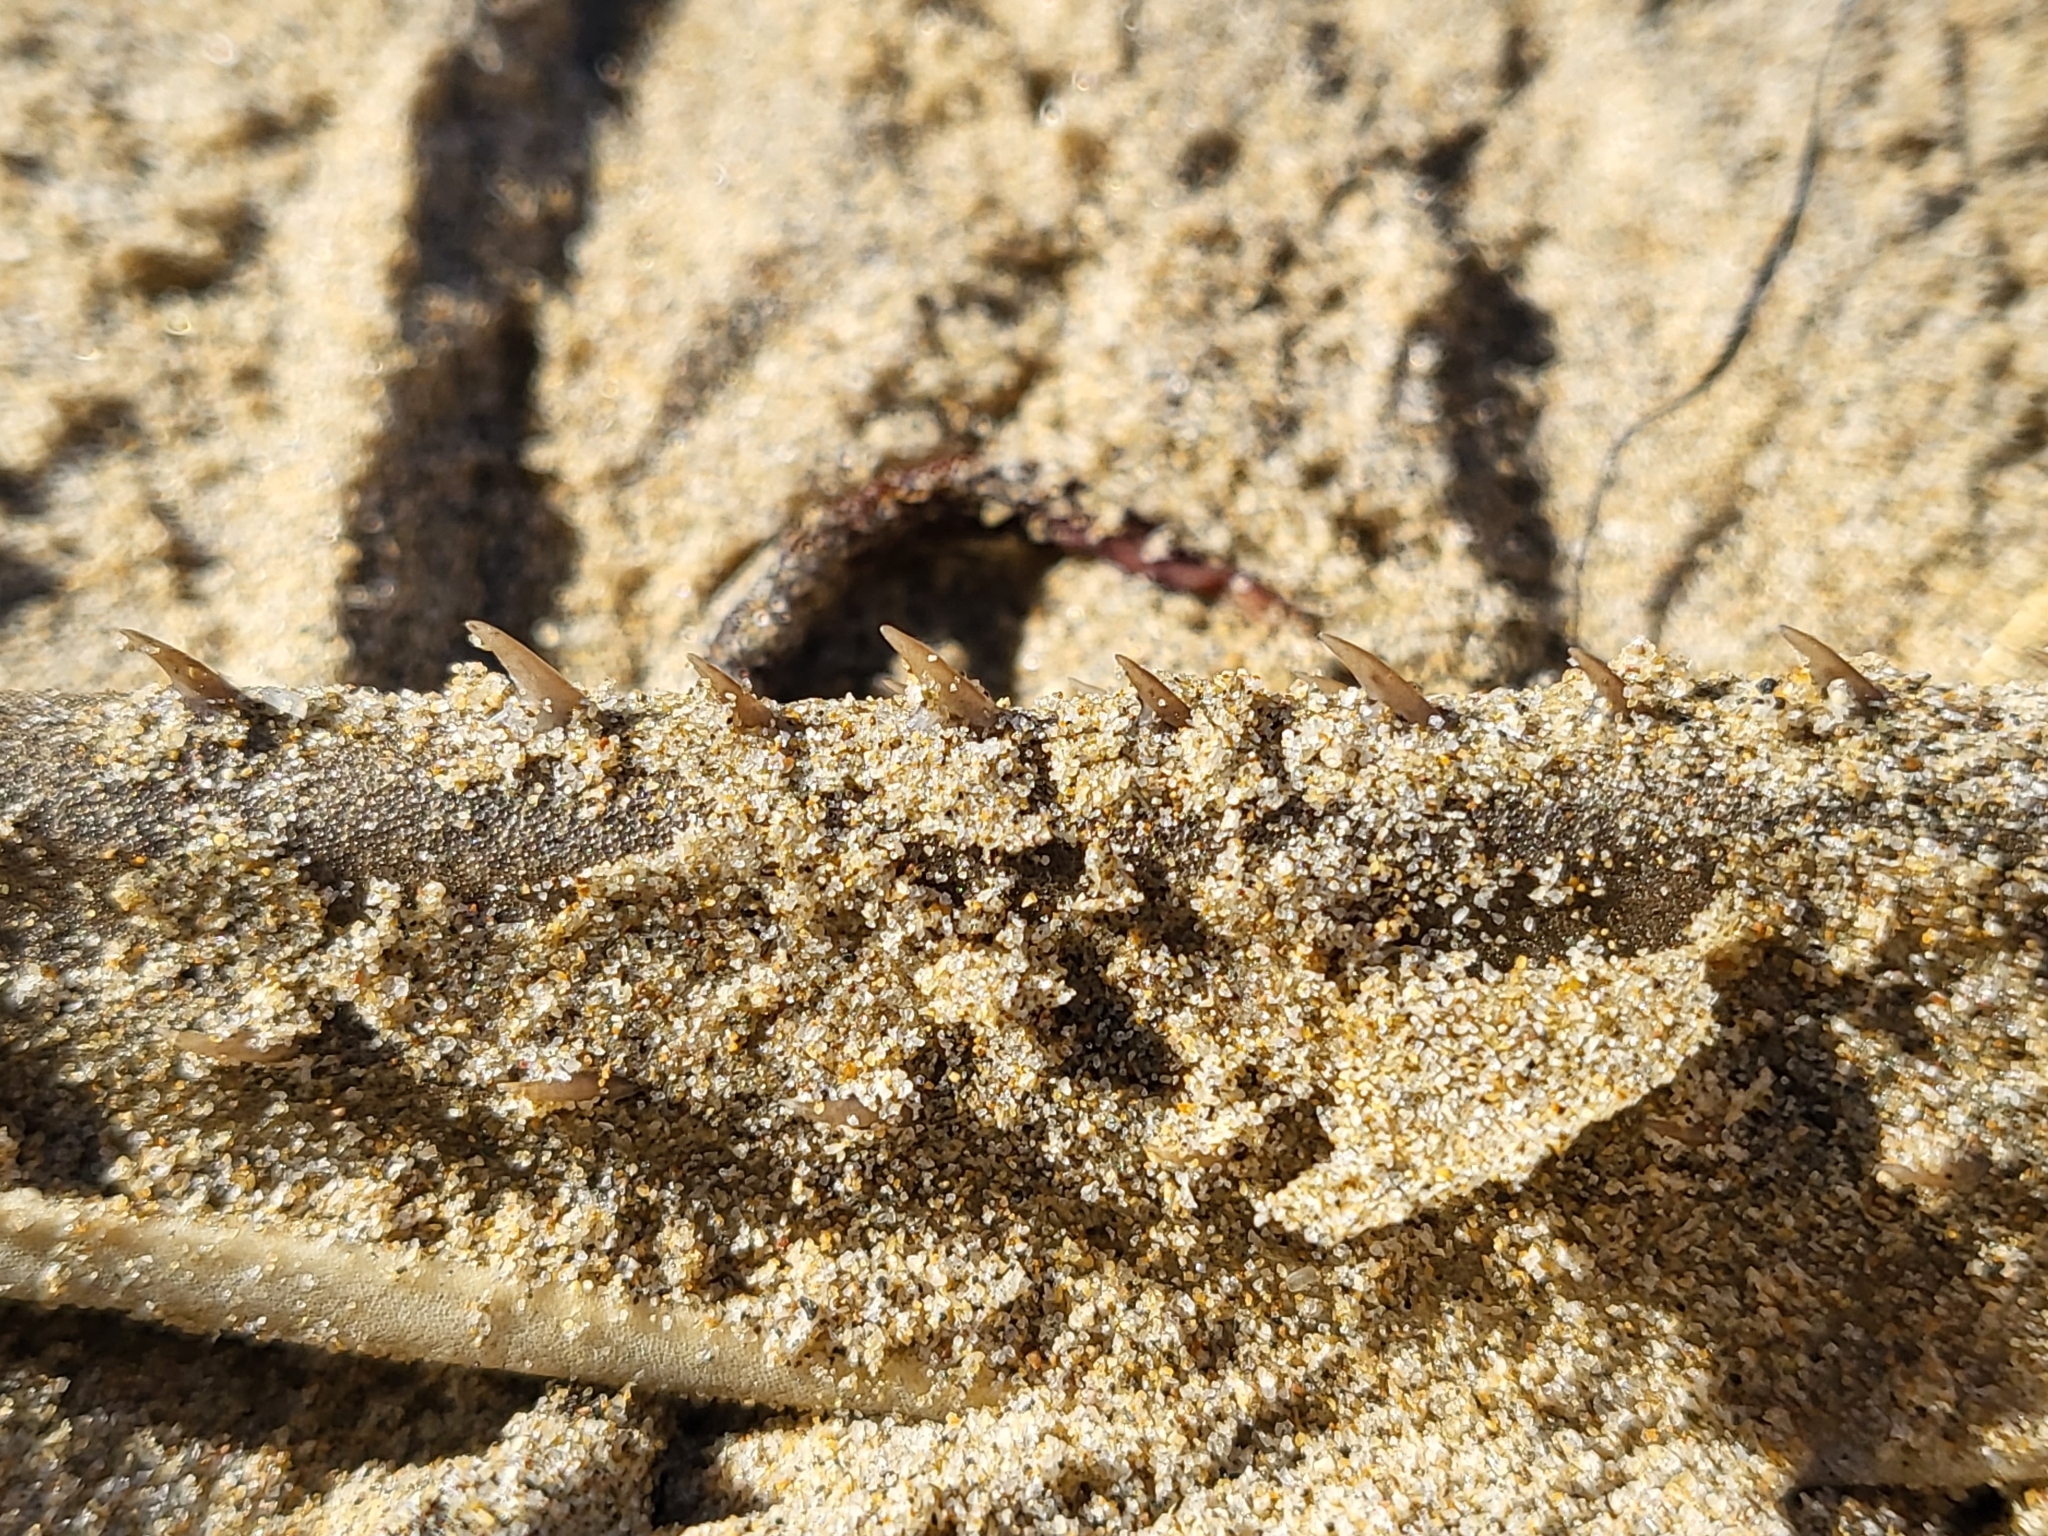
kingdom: Animalia
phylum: Chordata
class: Elasmobranchii
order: Rhinopristiformes
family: Rhinobatidae
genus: Platyrhinoidis
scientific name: Platyrhinoidis triseriata
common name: Thornback
